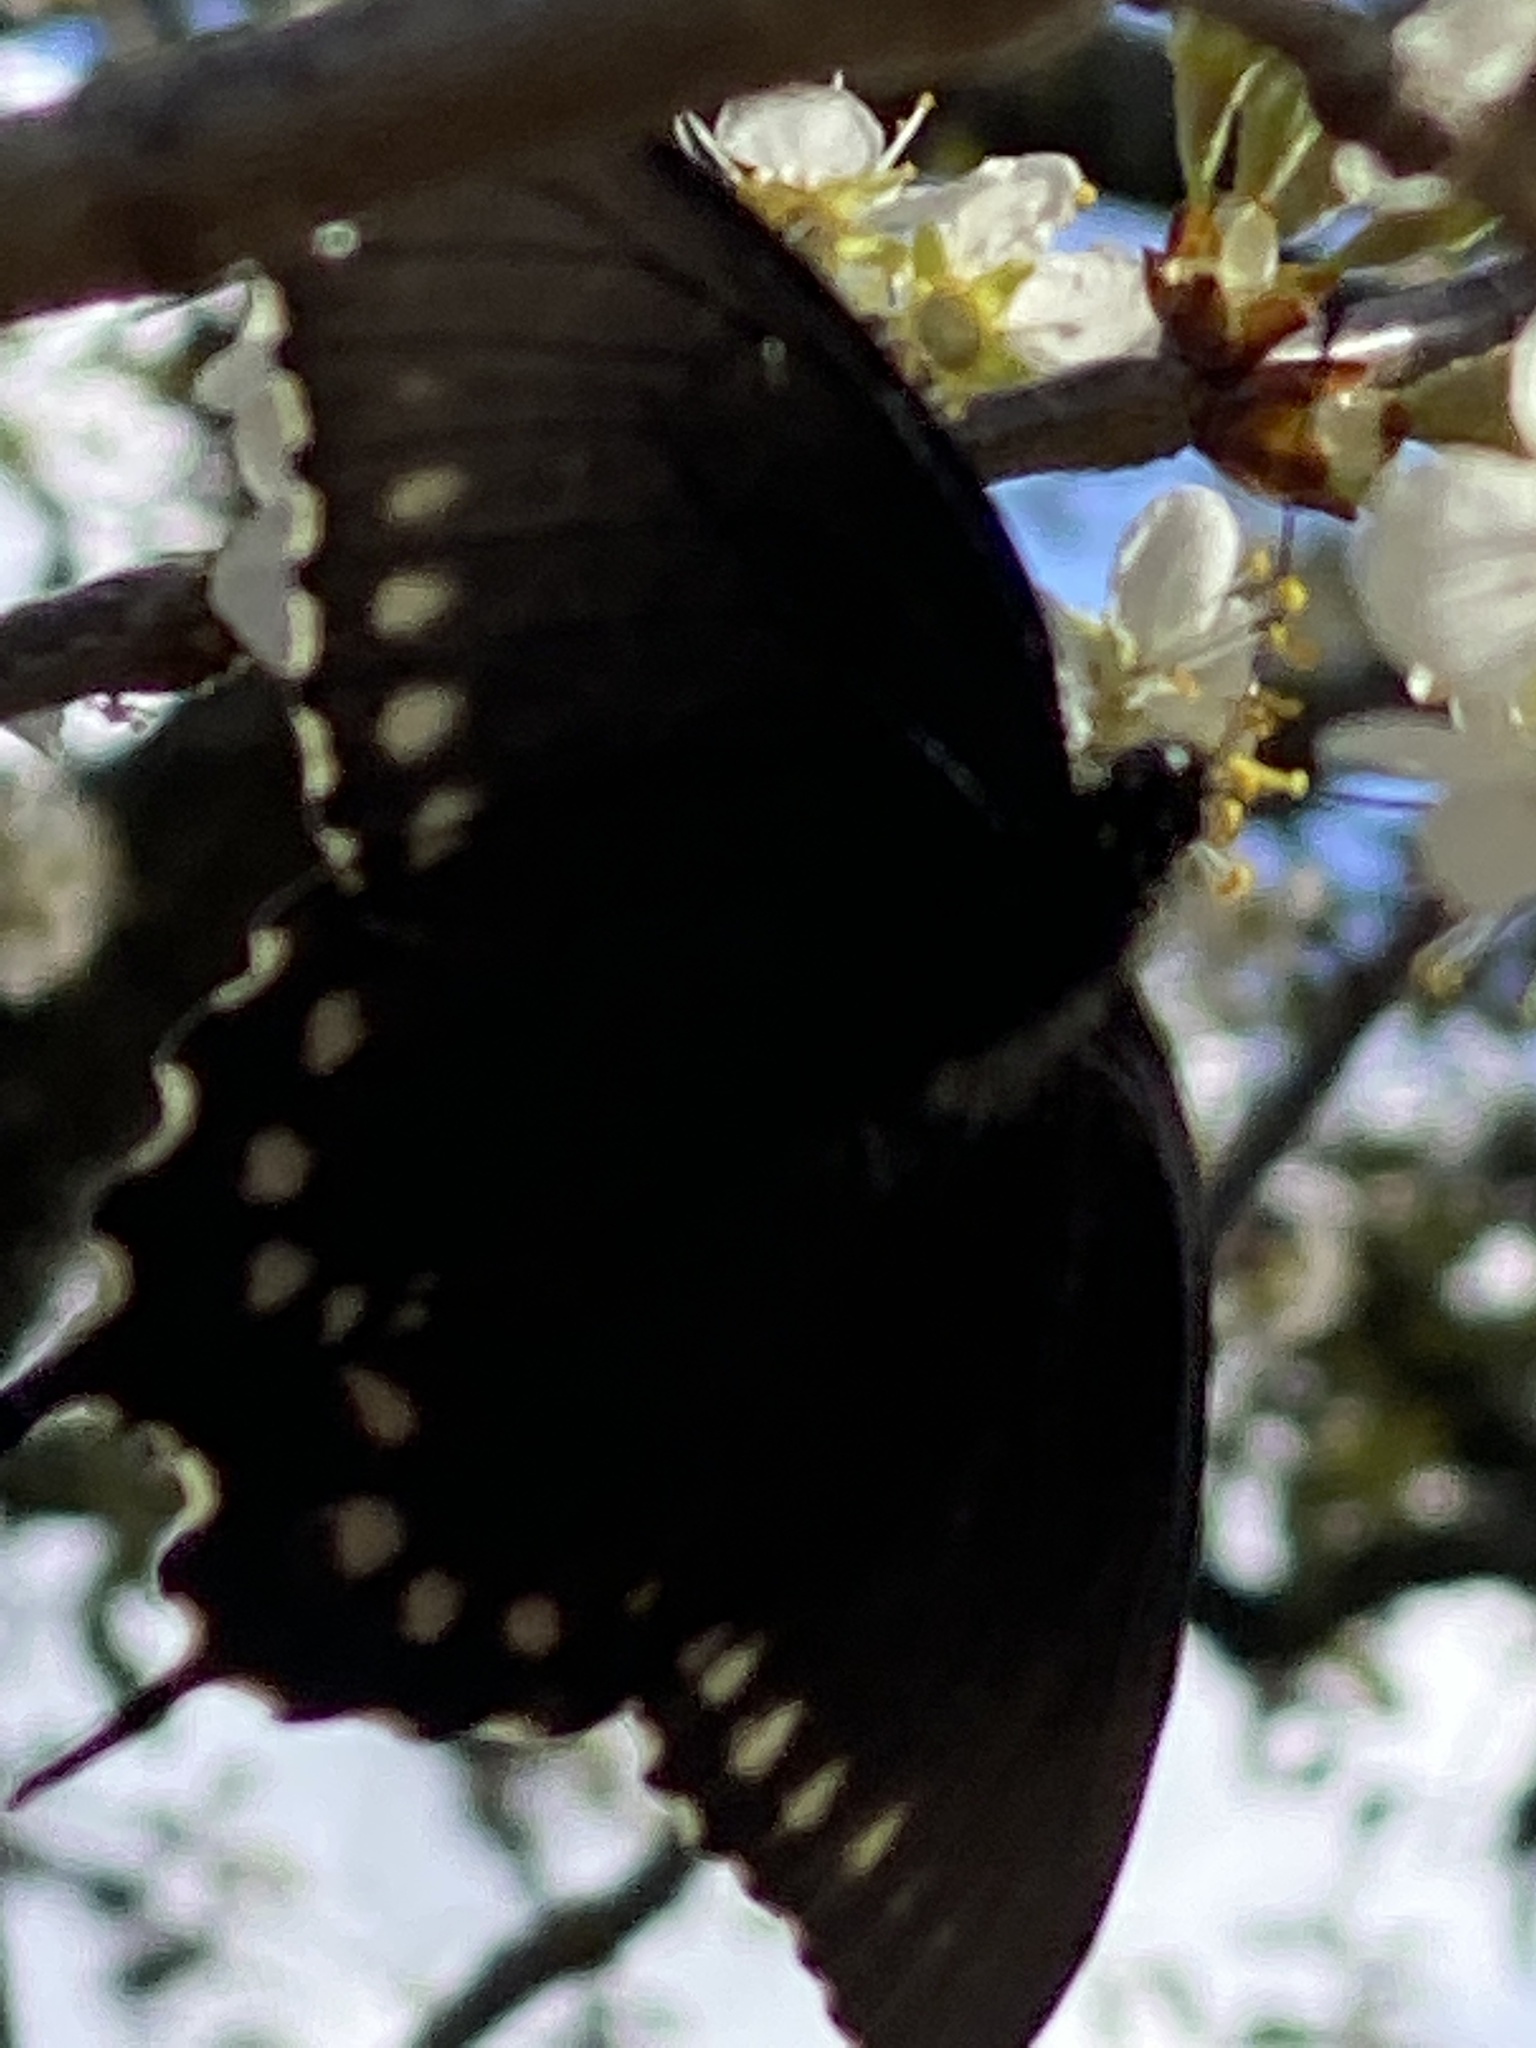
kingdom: Animalia
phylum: Arthropoda
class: Insecta
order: Lepidoptera
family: Papilionidae
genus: Battus
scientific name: Battus philenor
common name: Pipevine swallowtail
